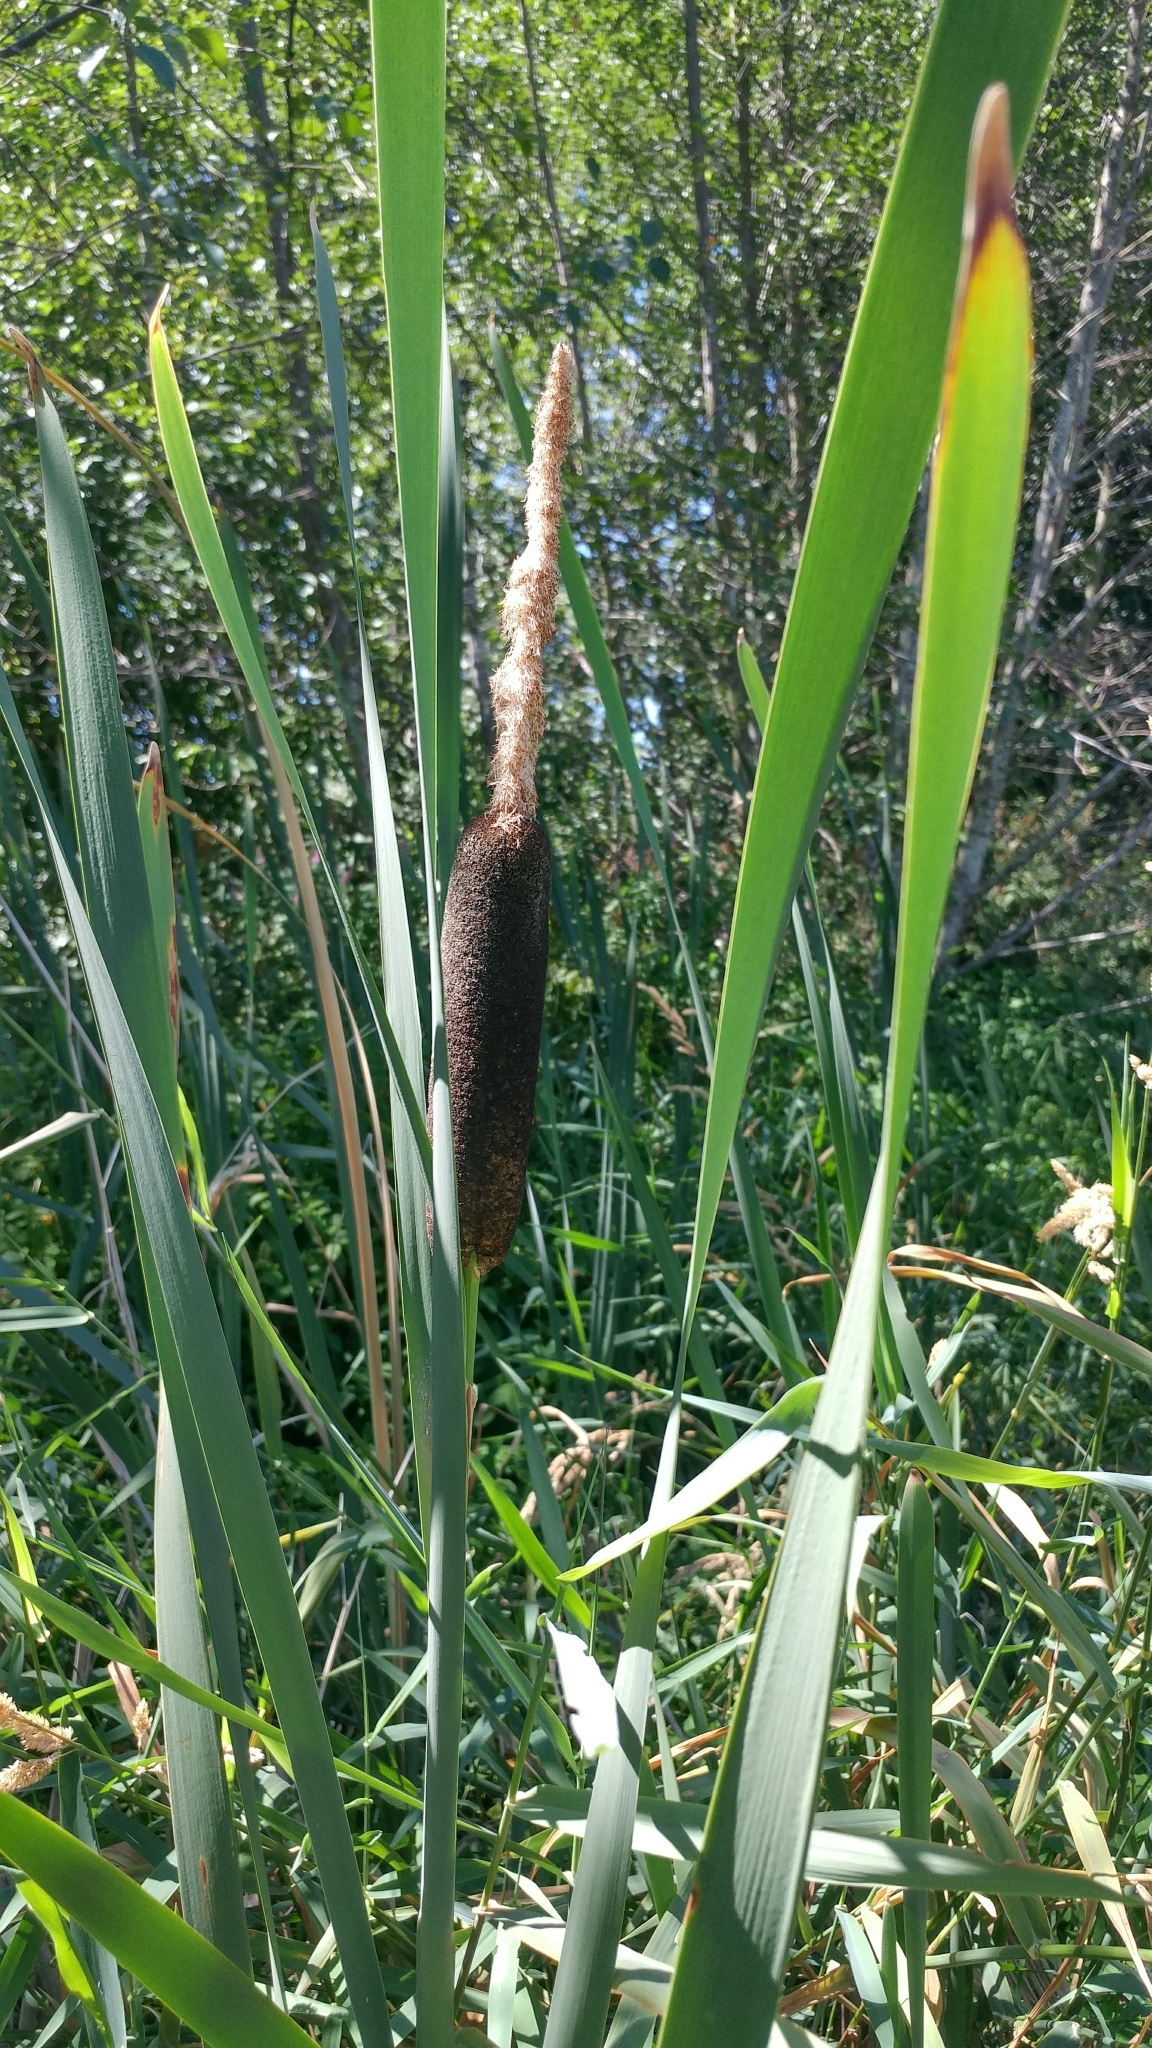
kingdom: Plantae
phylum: Tracheophyta
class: Liliopsida
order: Poales
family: Typhaceae
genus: Typha
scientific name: Typha latifolia
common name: Broadleaf cattail
